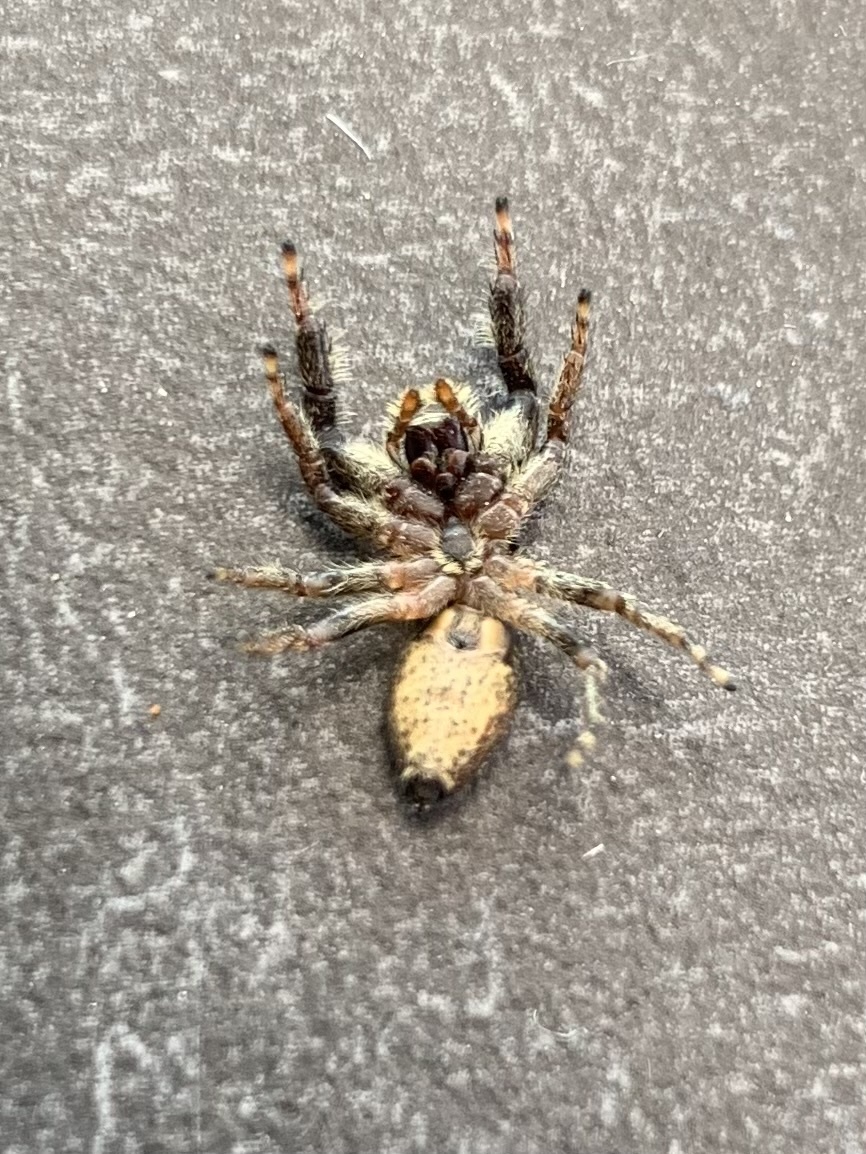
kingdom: Animalia
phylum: Arthropoda
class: Arachnida
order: Araneae
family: Salticidae
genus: Marpissa
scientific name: Marpissa muscosa
